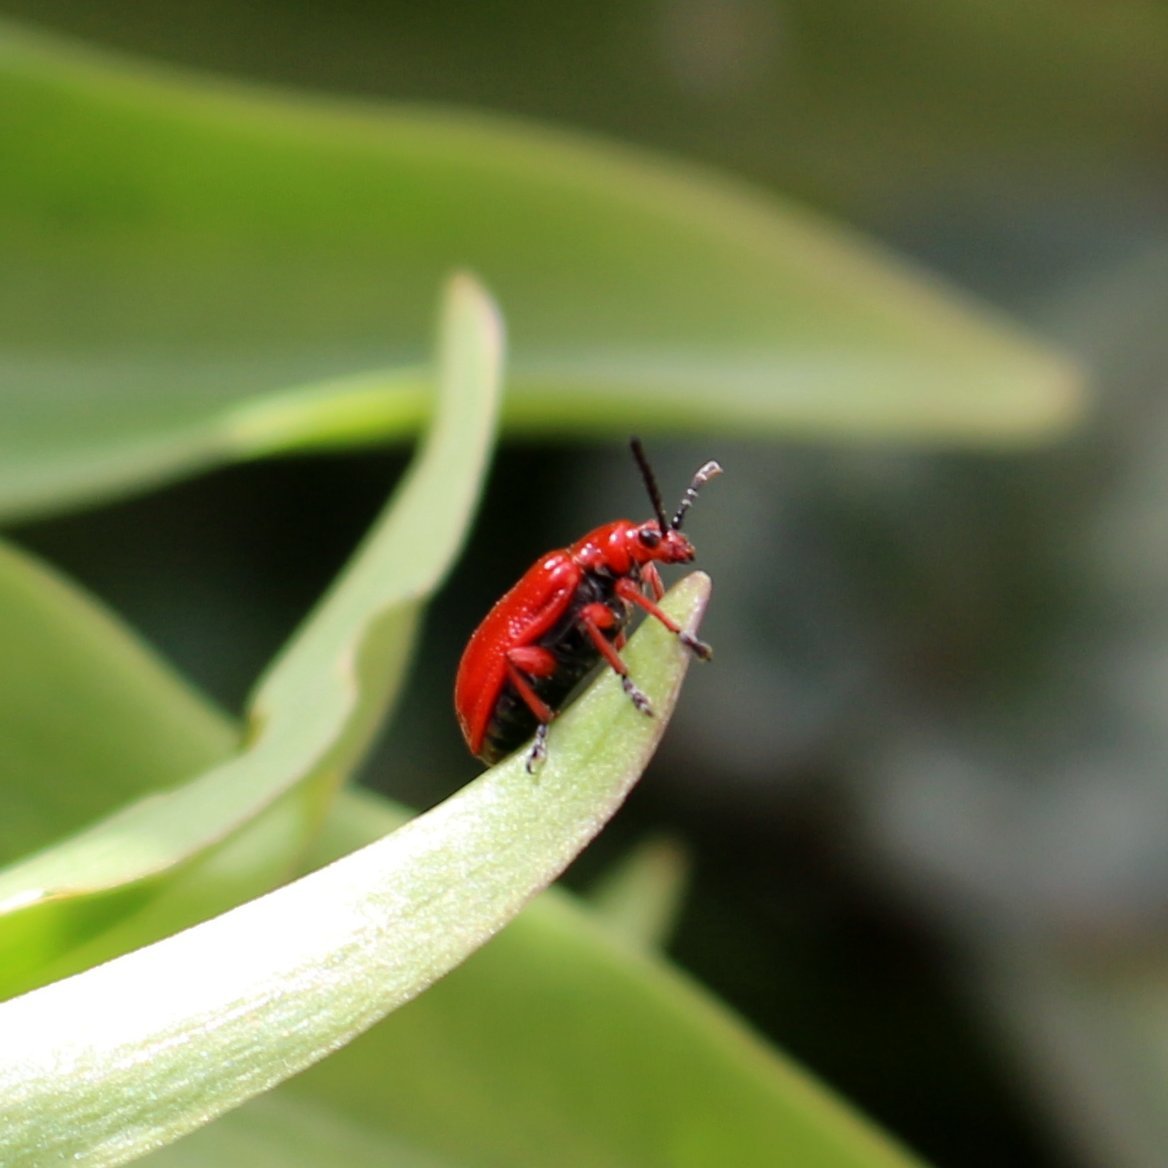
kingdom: Animalia
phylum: Arthropoda
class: Insecta
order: Coleoptera
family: Chrysomelidae
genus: Lilioceris
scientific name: Lilioceris faldermanni
